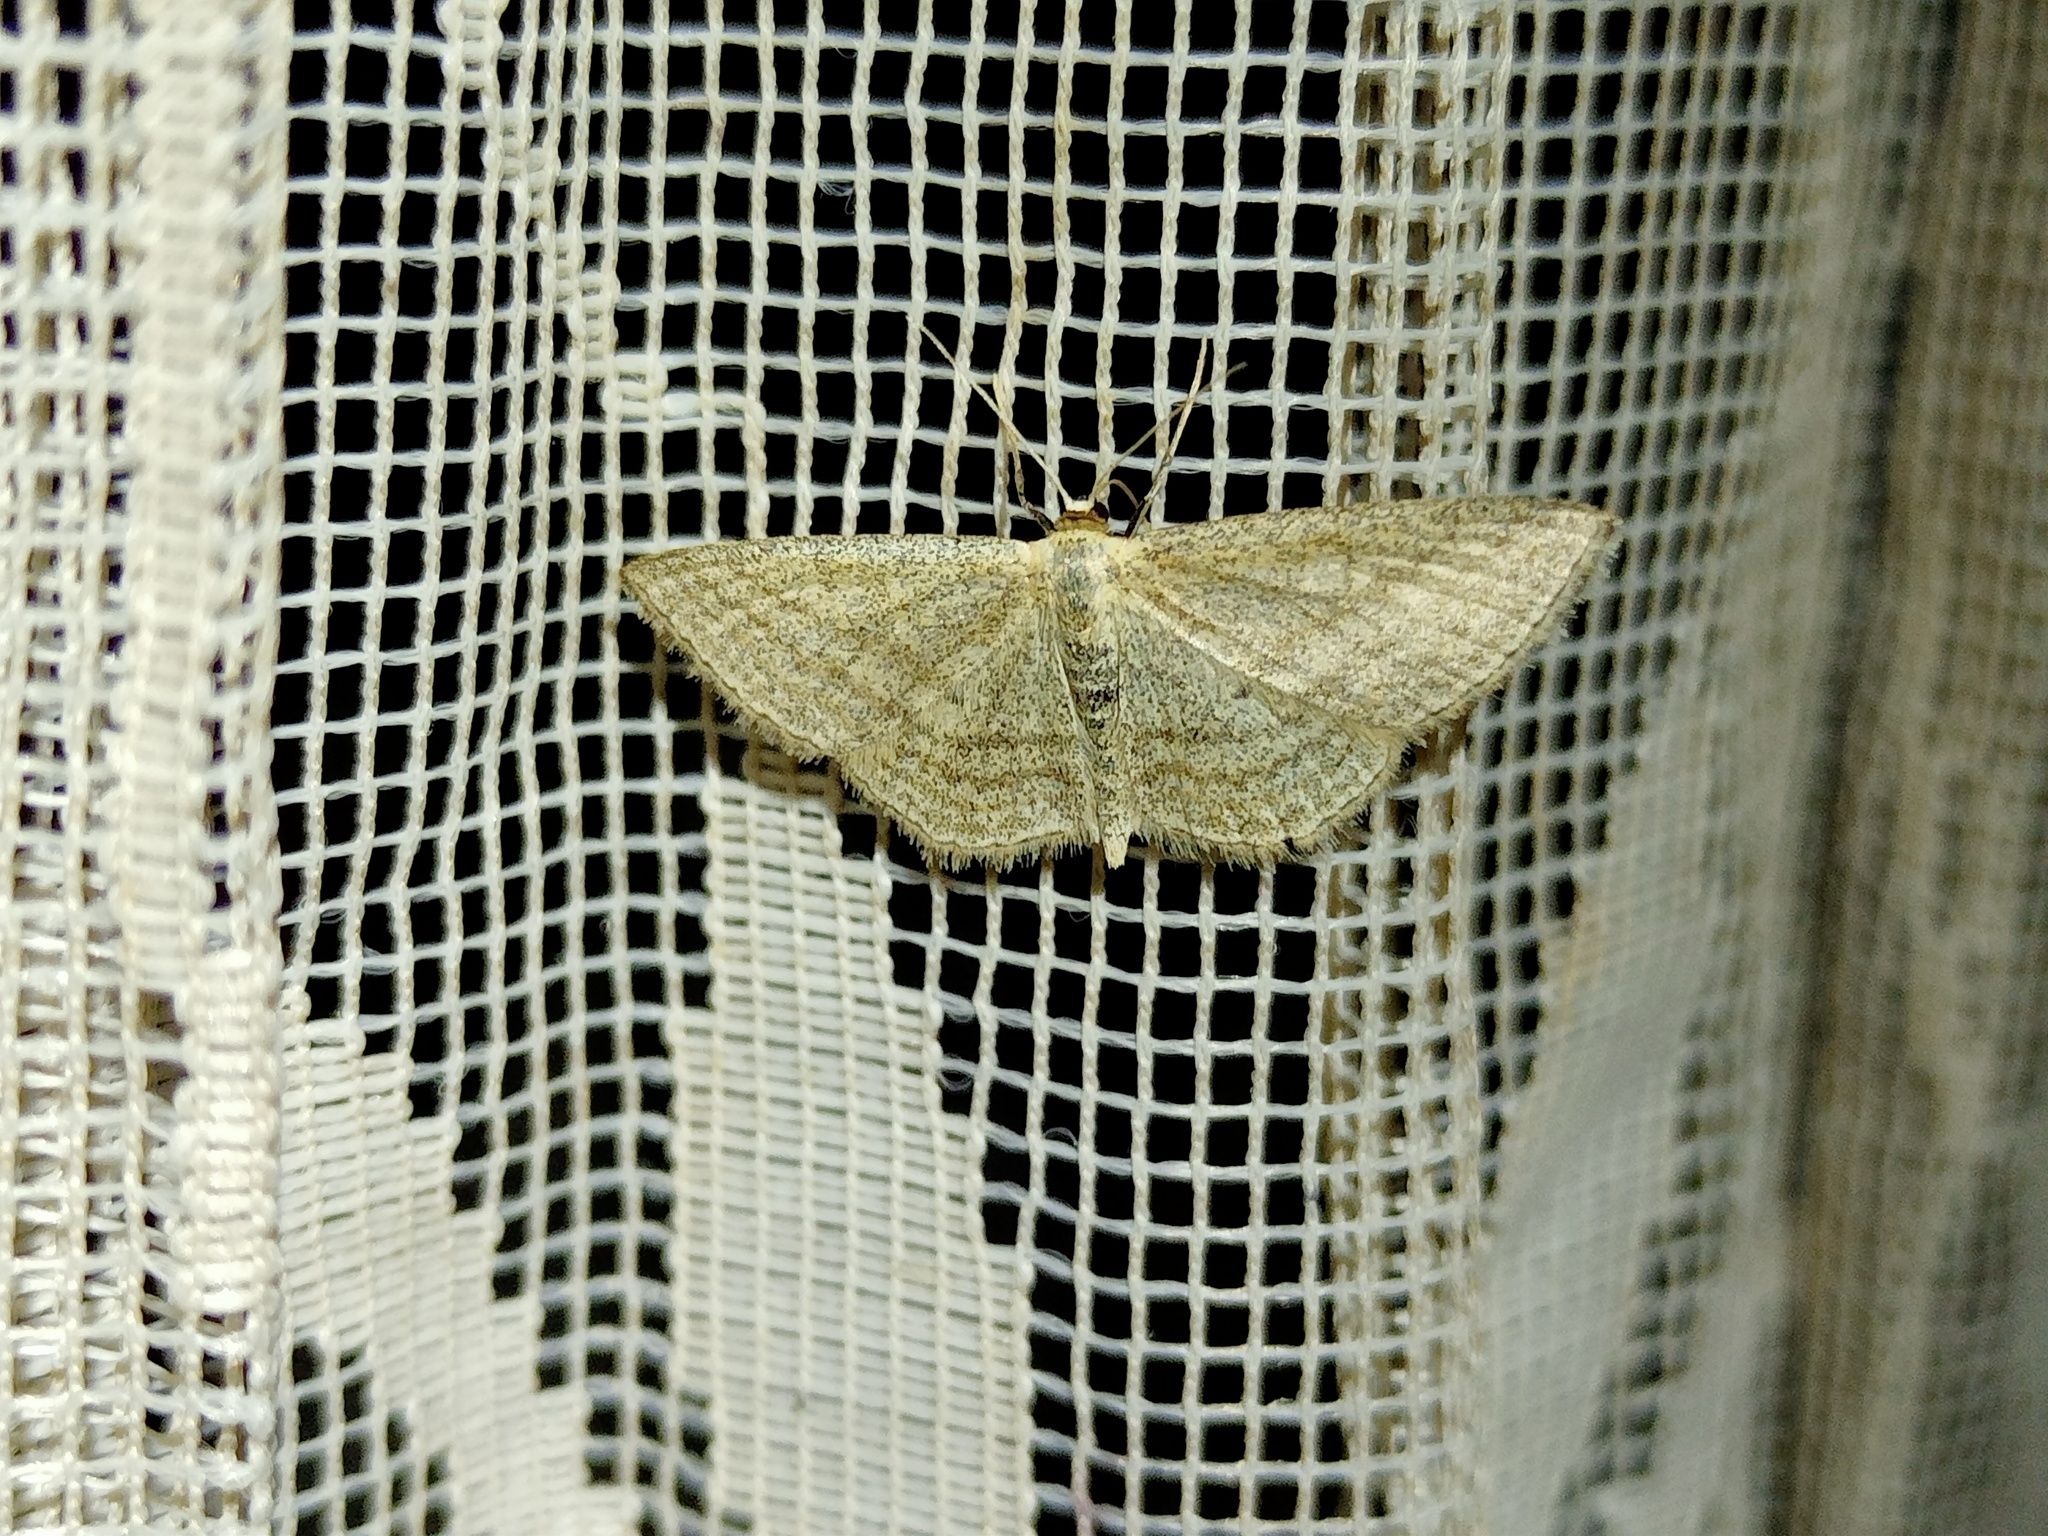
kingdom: Animalia
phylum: Arthropoda
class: Insecta
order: Lepidoptera
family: Geometridae
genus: Scopula
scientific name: Scopula virgulata
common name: Streaked wave
